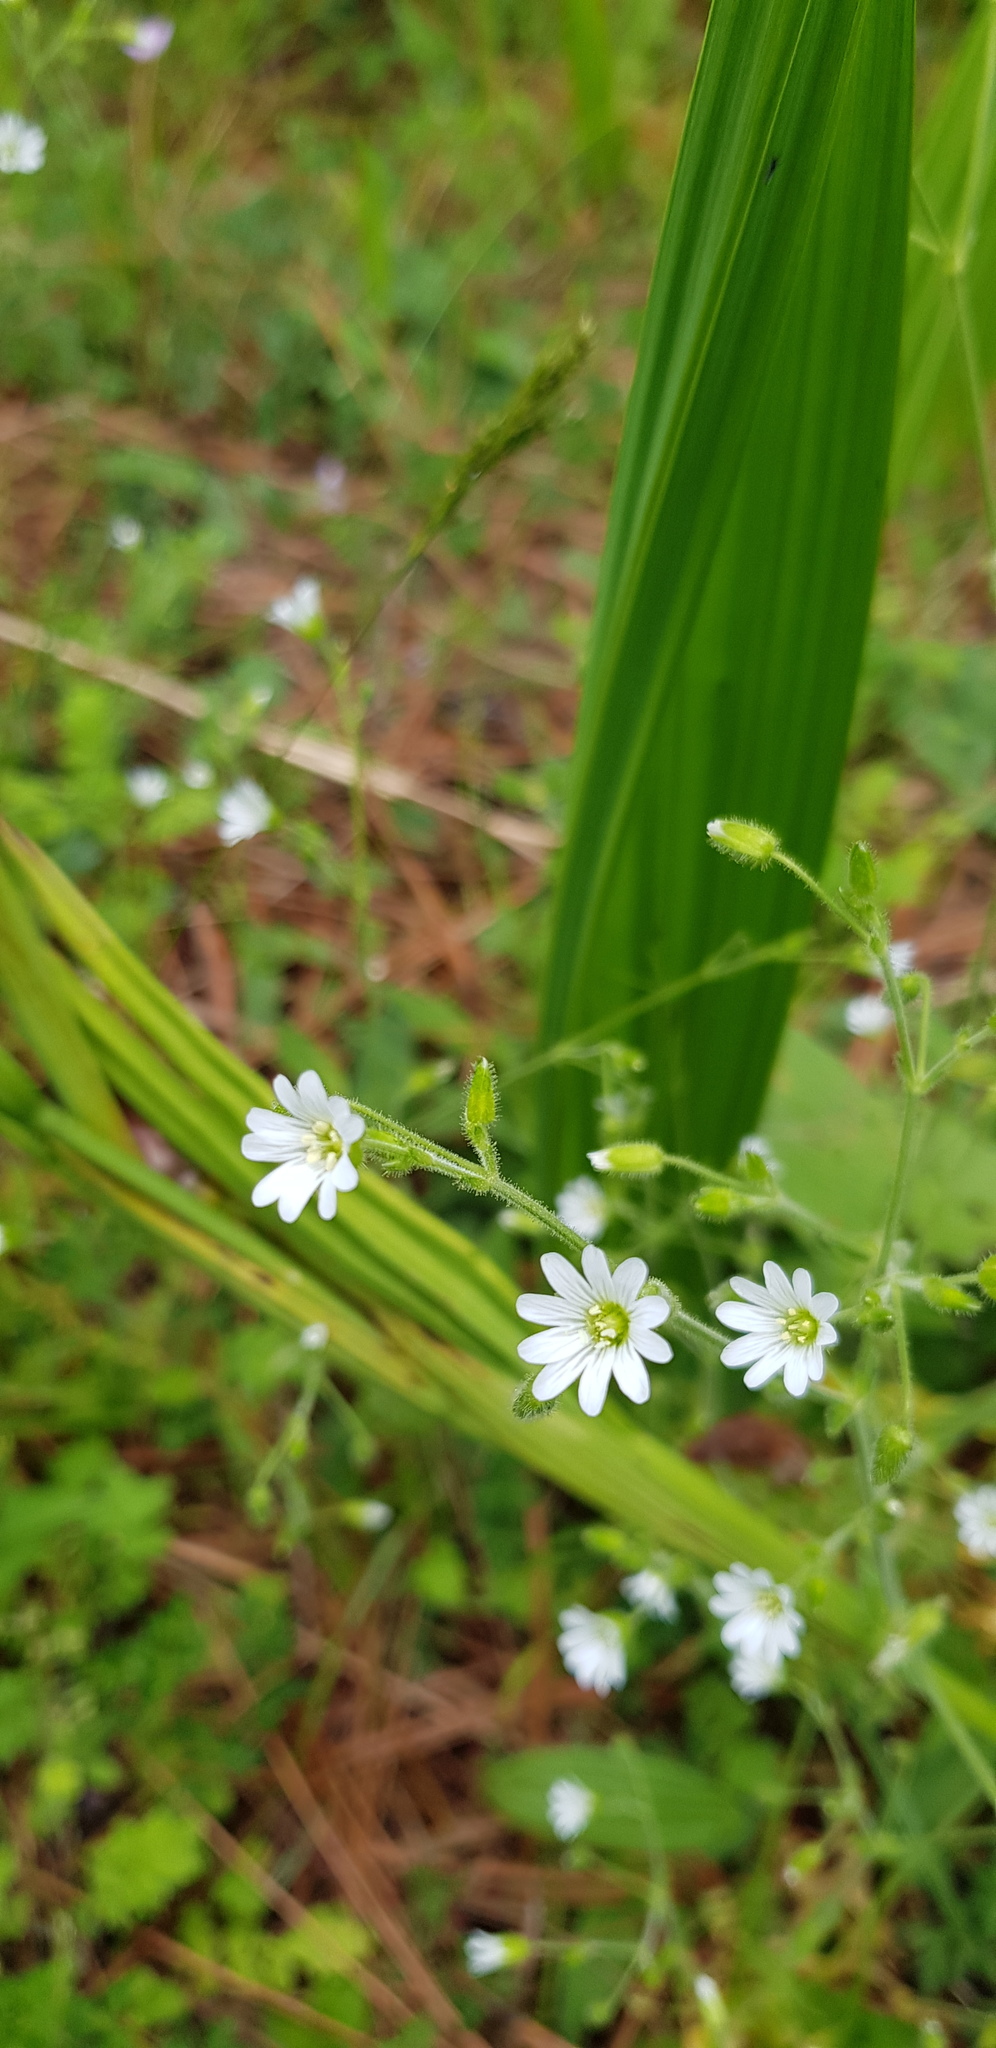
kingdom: Plantae
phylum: Tracheophyta
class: Magnoliopsida
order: Caryophyllales
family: Caryophyllaceae
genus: Stellaria
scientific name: Stellaria cuspidata
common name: Mexican chickweed
